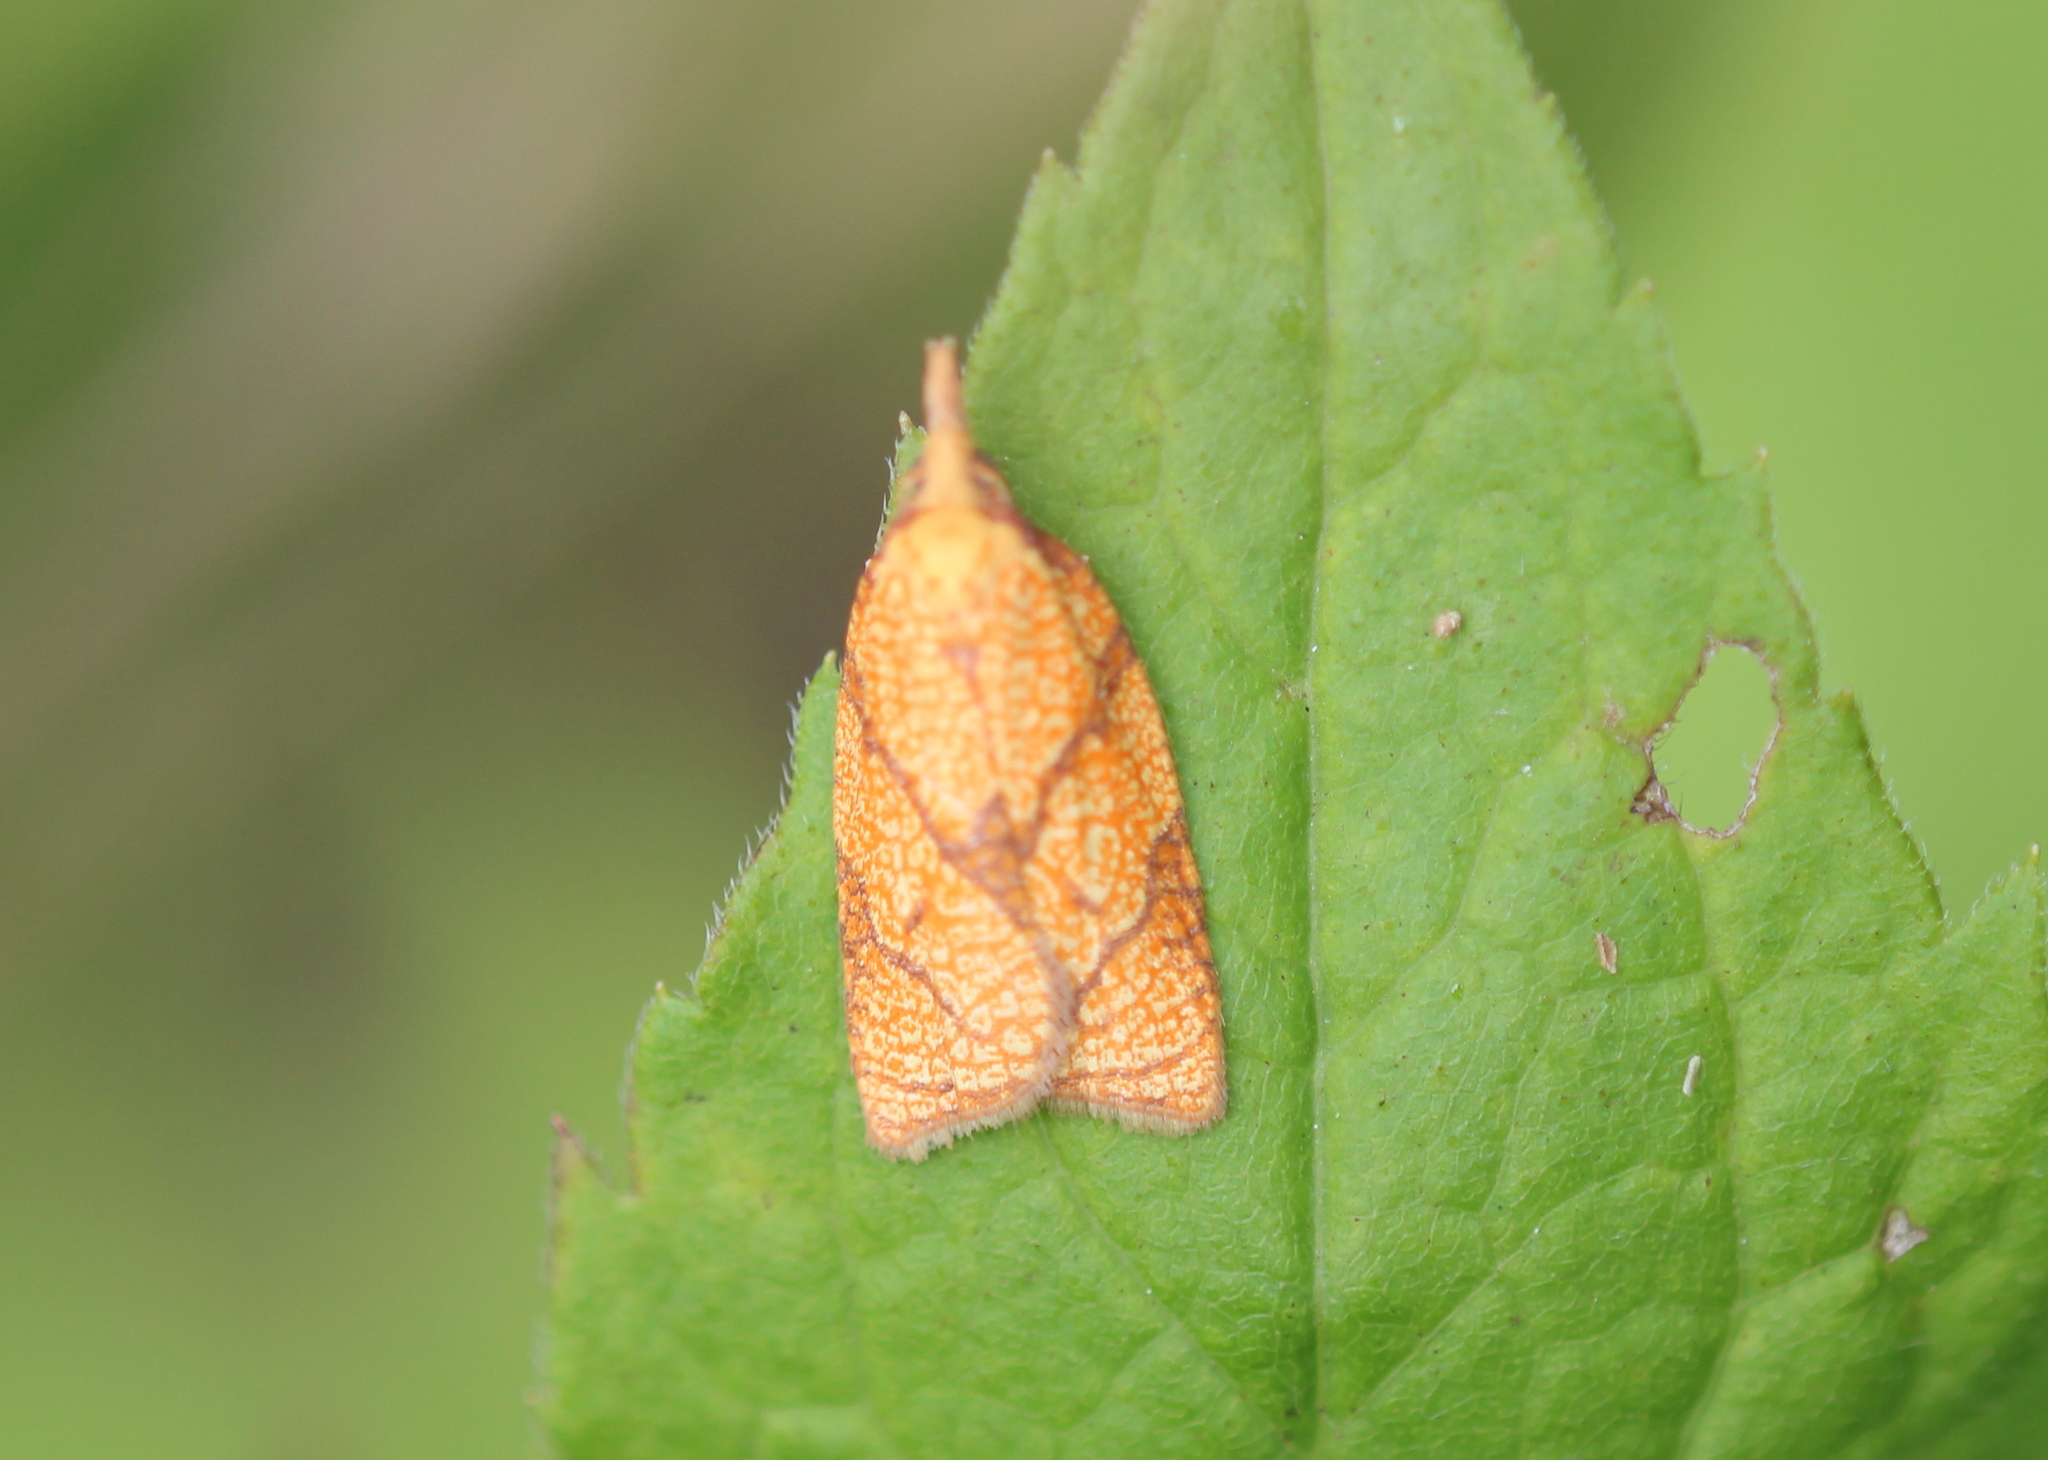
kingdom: Animalia
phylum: Arthropoda
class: Insecta
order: Lepidoptera
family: Tortricidae
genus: Cenopis
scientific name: Cenopis reticulatana
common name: Reticulated fruitworm moth
